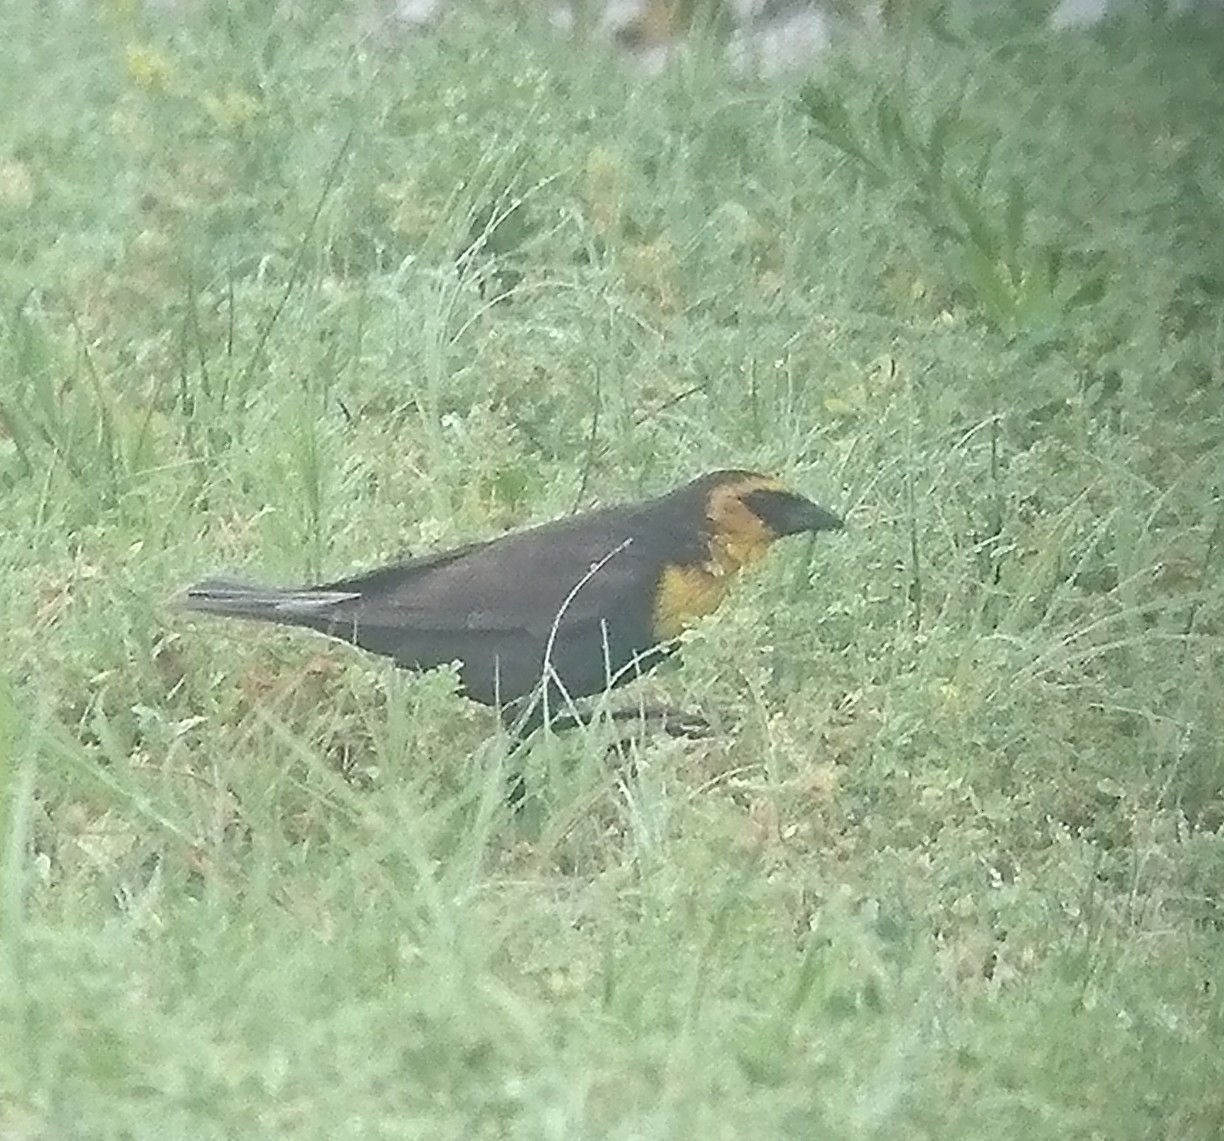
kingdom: Animalia
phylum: Chordata
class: Aves
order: Passeriformes
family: Icteridae
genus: Xanthocephalus
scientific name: Xanthocephalus xanthocephalus
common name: Yellow-headed blackbird
